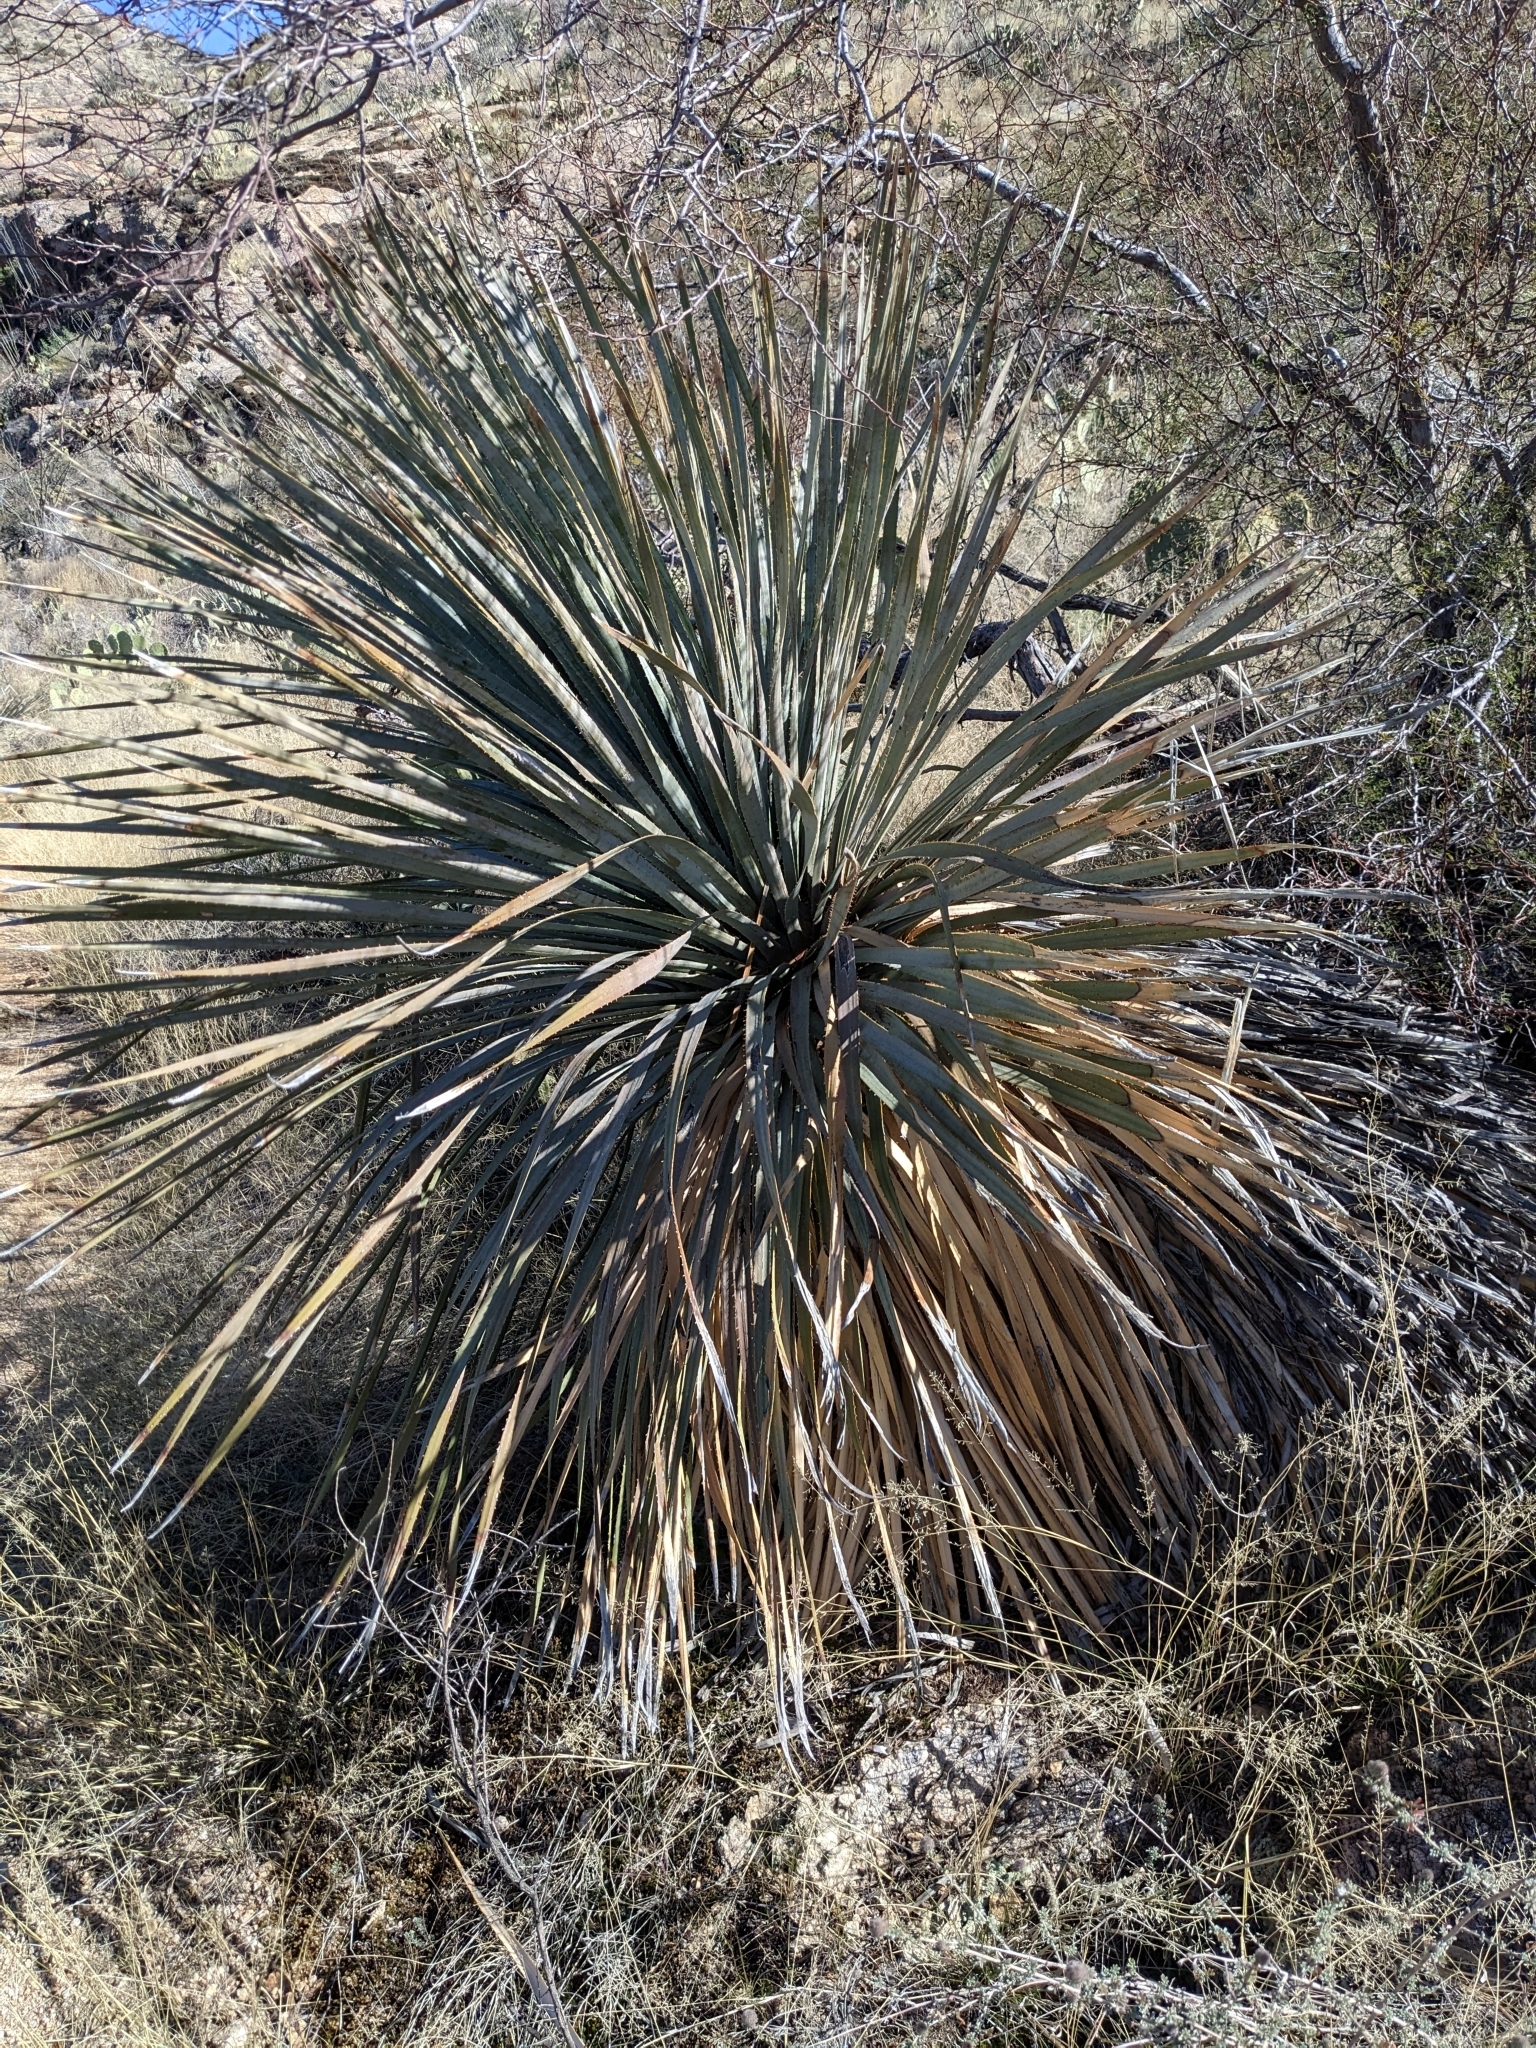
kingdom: Plantae
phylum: Tracheophyta
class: Liliopsida
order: Asparagales
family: Asparagaceae
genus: Dasylirion
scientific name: Dasylirion wheeleri
